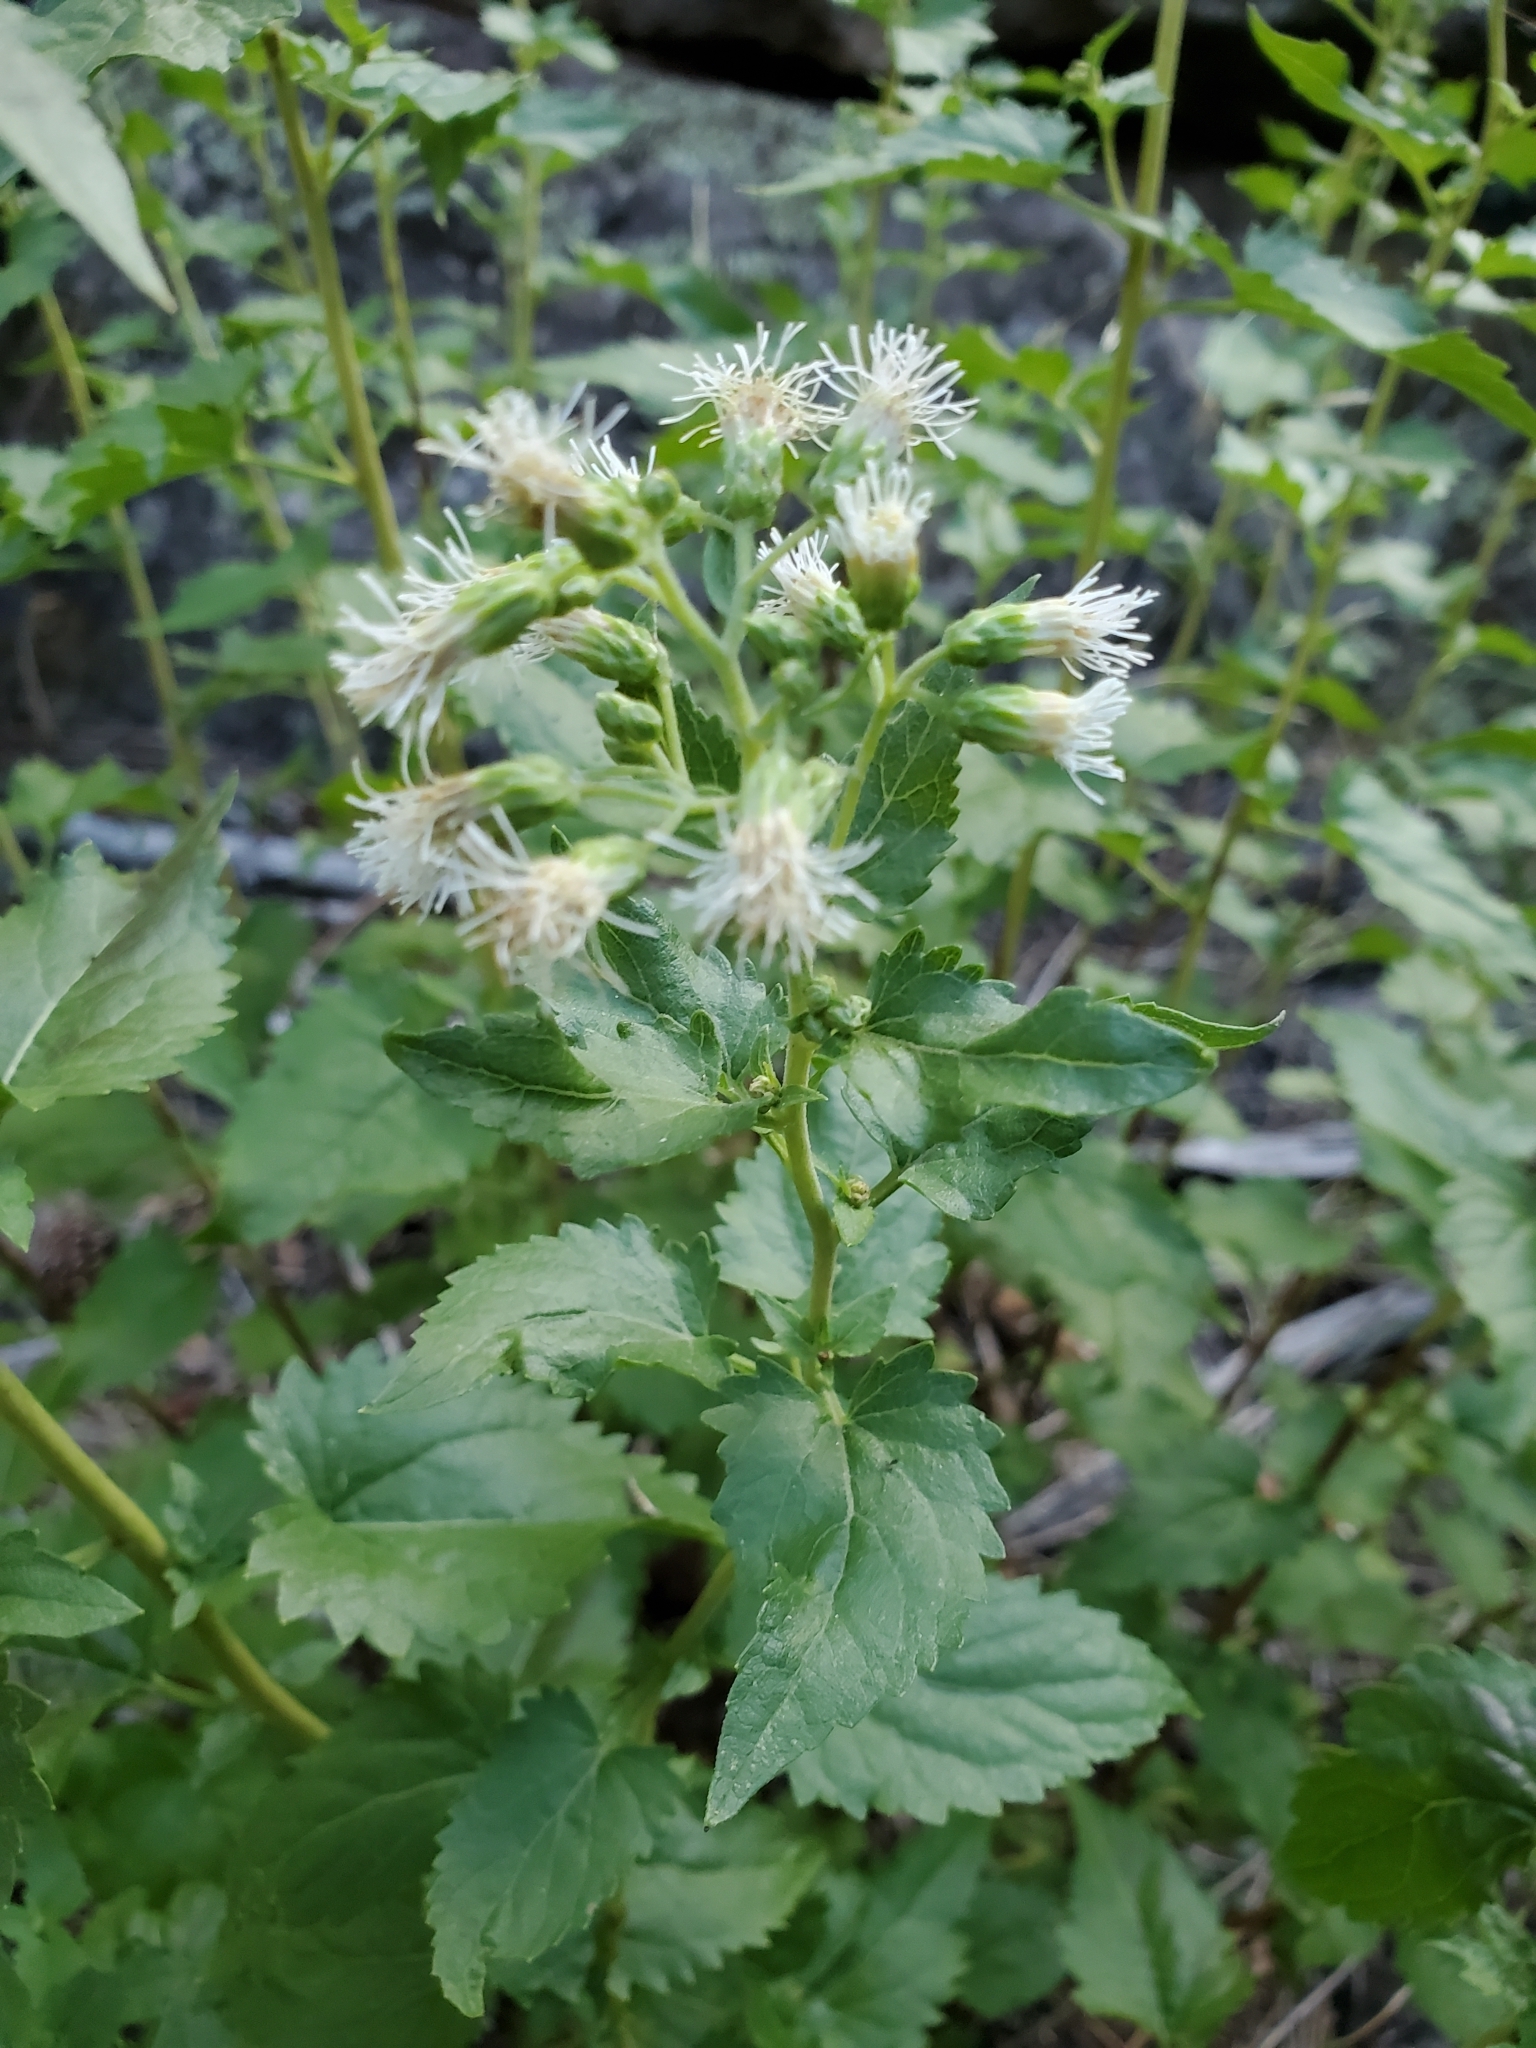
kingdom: Plantae
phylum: Tracheophyta
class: Magnoliopsida
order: Asterales
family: Asteraceae
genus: Brickelliastrum
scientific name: Brickelliastrum fendleri
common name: Fendler's-brickellbush
